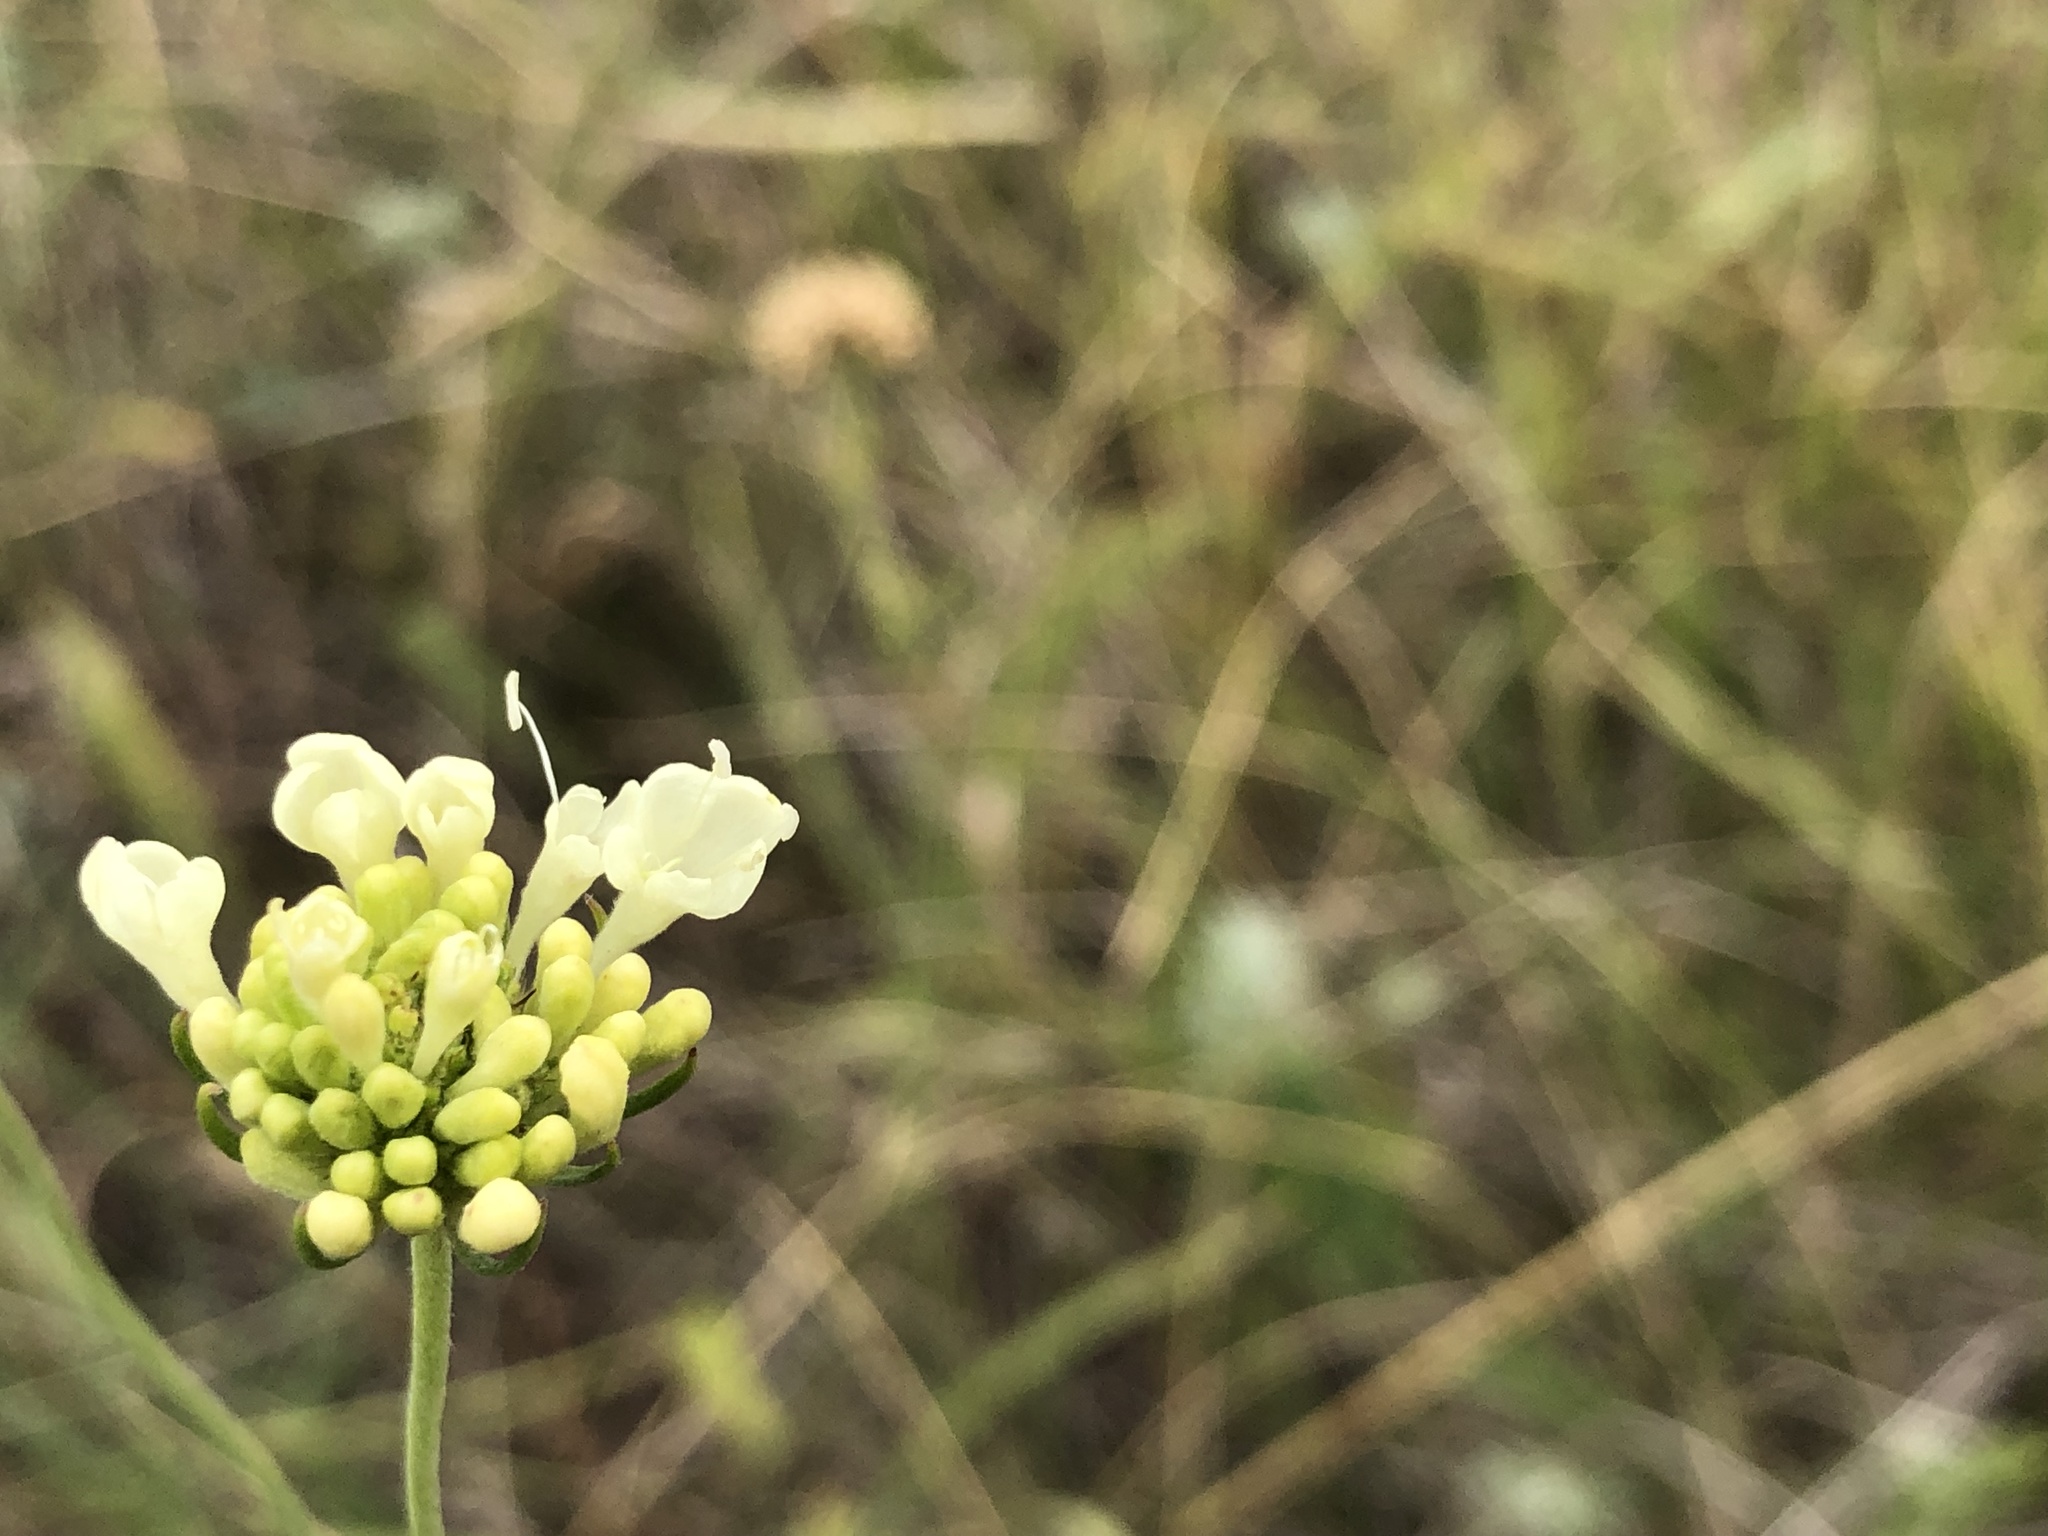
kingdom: Plantae
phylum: Tracheophyta
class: Magnoliopsida
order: Dipsacales
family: Caprifoliaceae
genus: Scabiosa
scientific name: Scabiosa ochroleuca
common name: Cream pincushions
